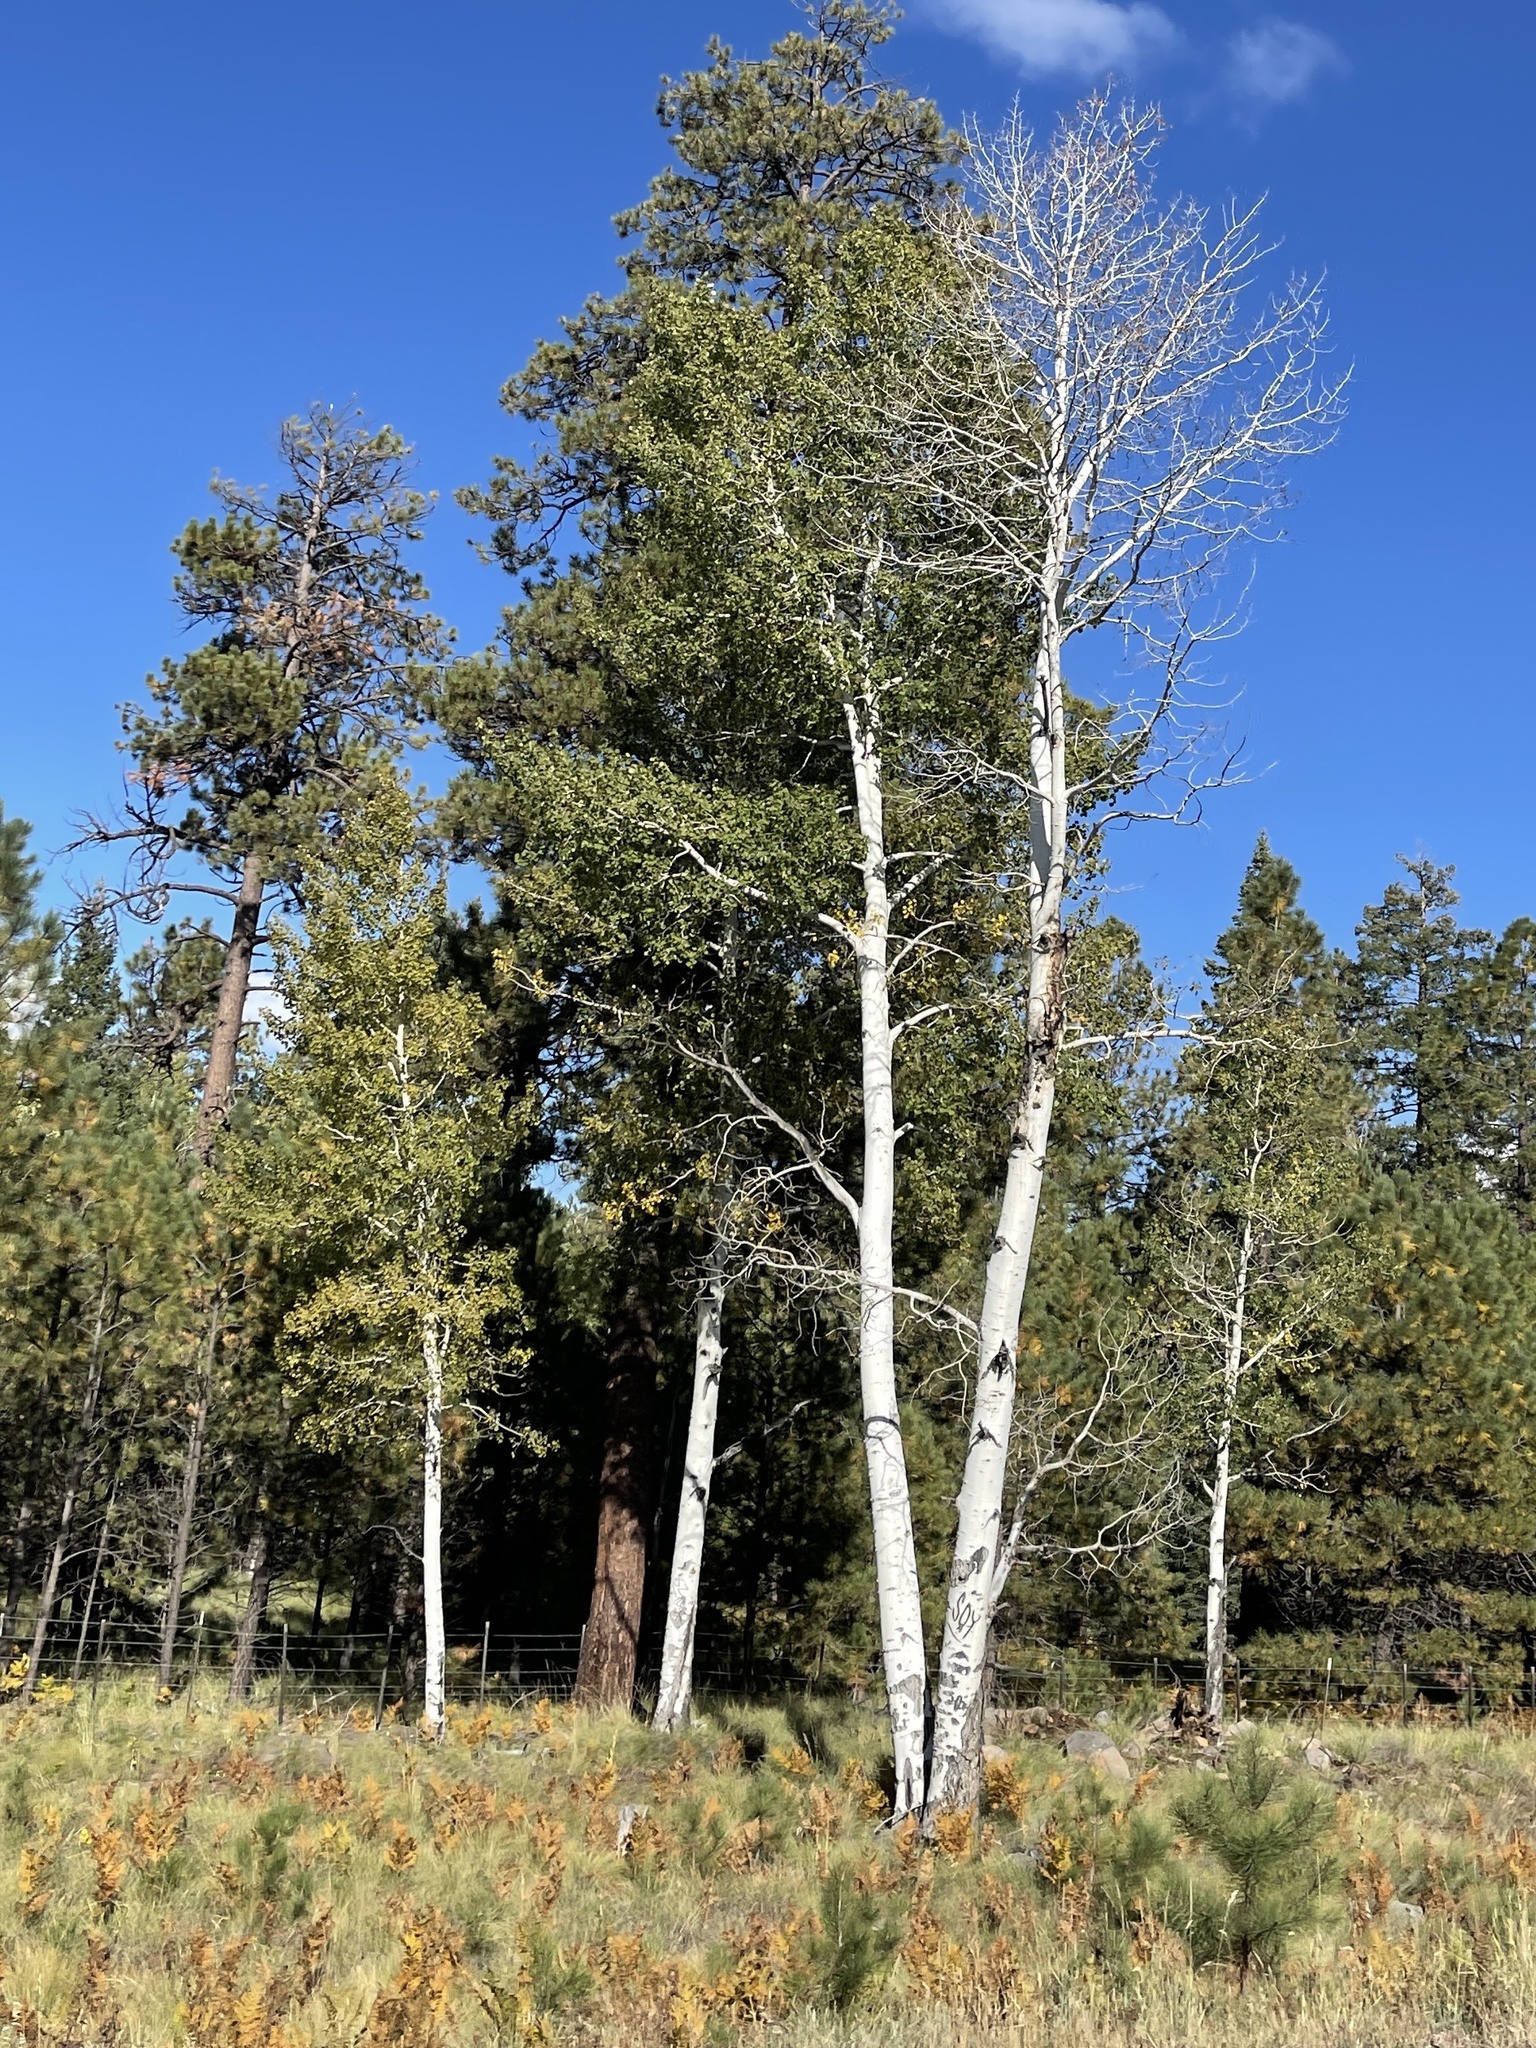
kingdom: Plantae
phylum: Tracheophyta
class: Magnoliopsida
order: Malpighiales
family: Salicaceae
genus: Populus
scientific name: Populus tremuloides
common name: Quaking aspen
